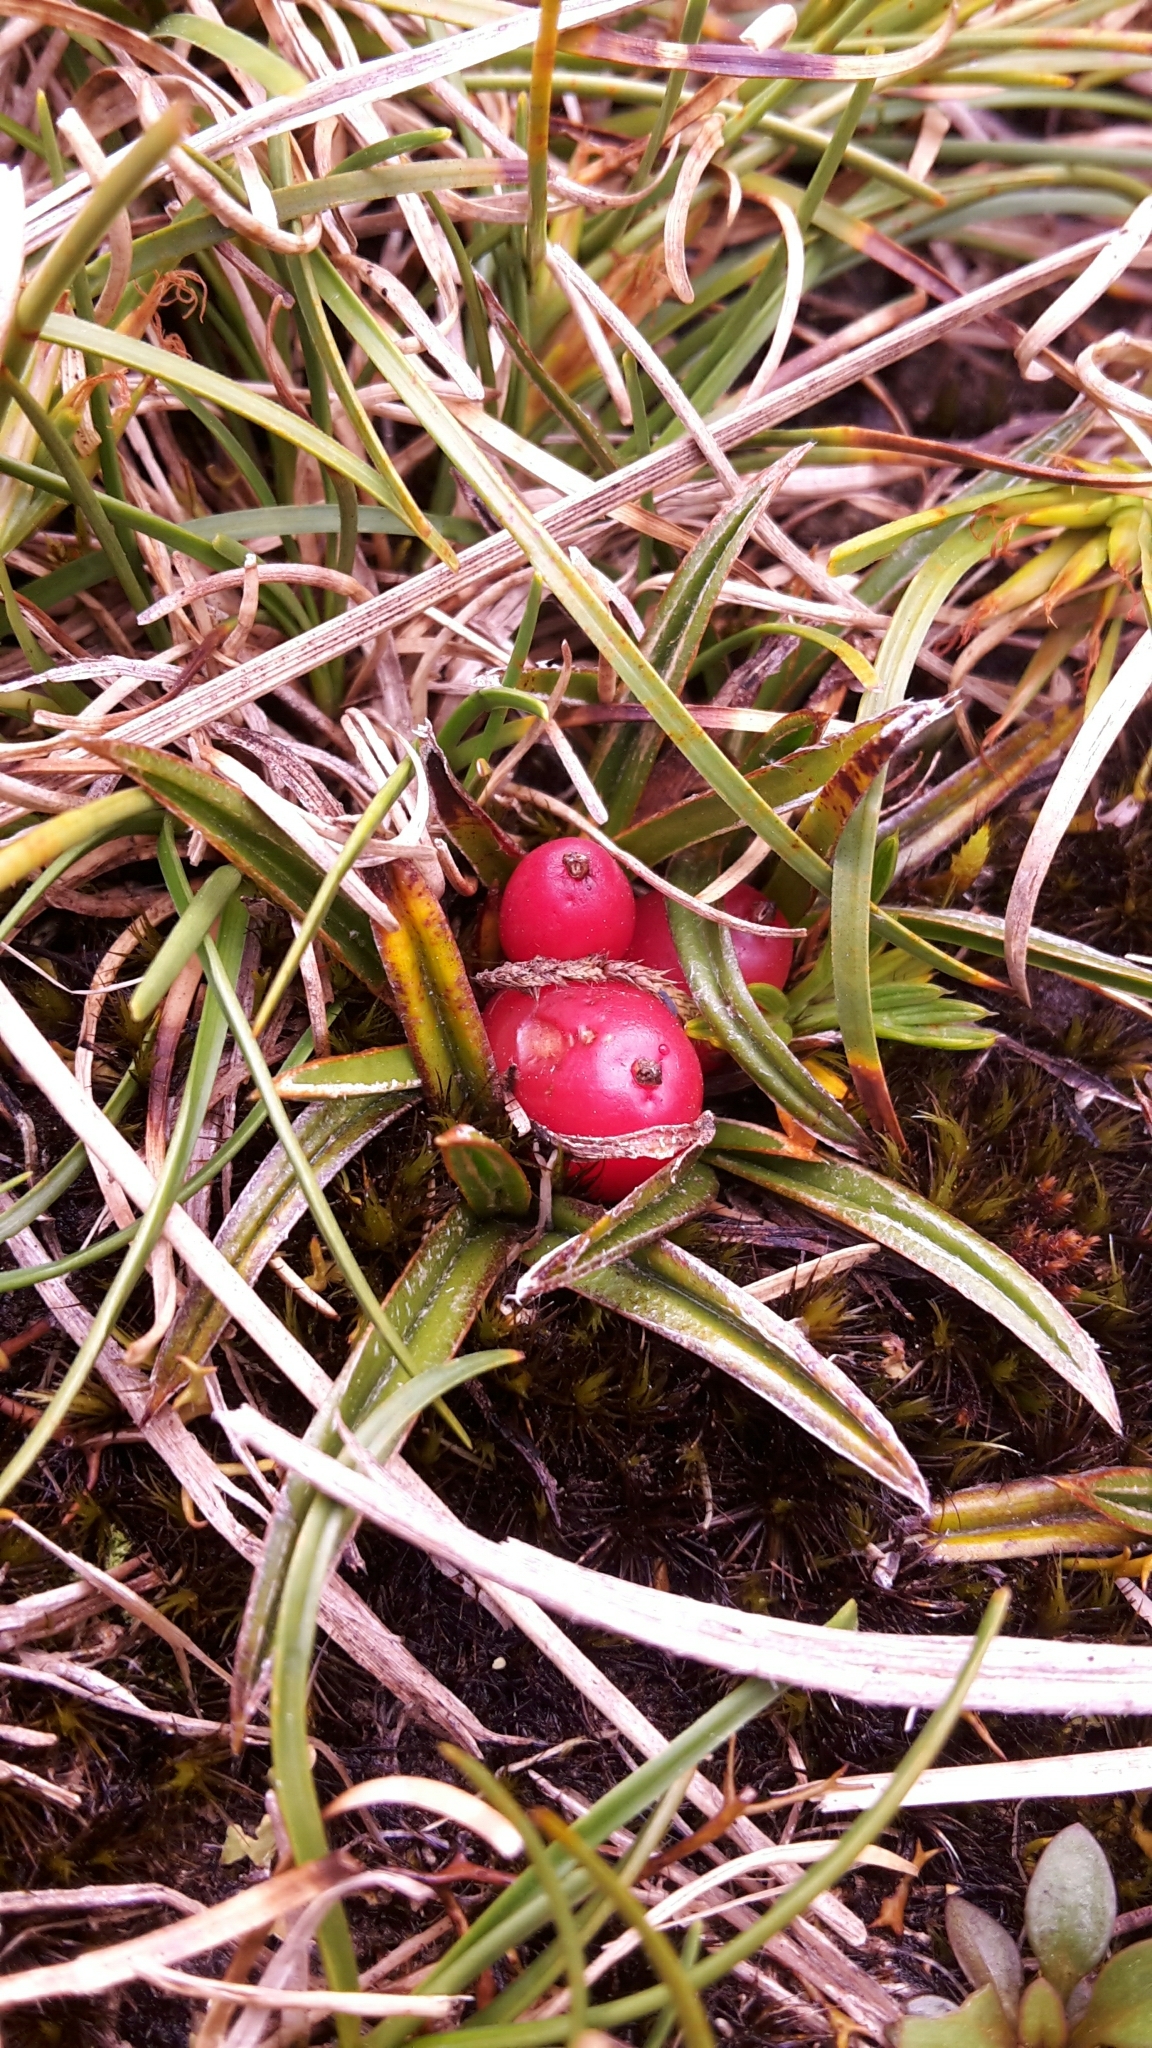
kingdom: Plantae
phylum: Tracheophyta
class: Liliopsida
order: Asparagales
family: Asteliaceae
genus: Astelia
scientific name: Astelia linearis
